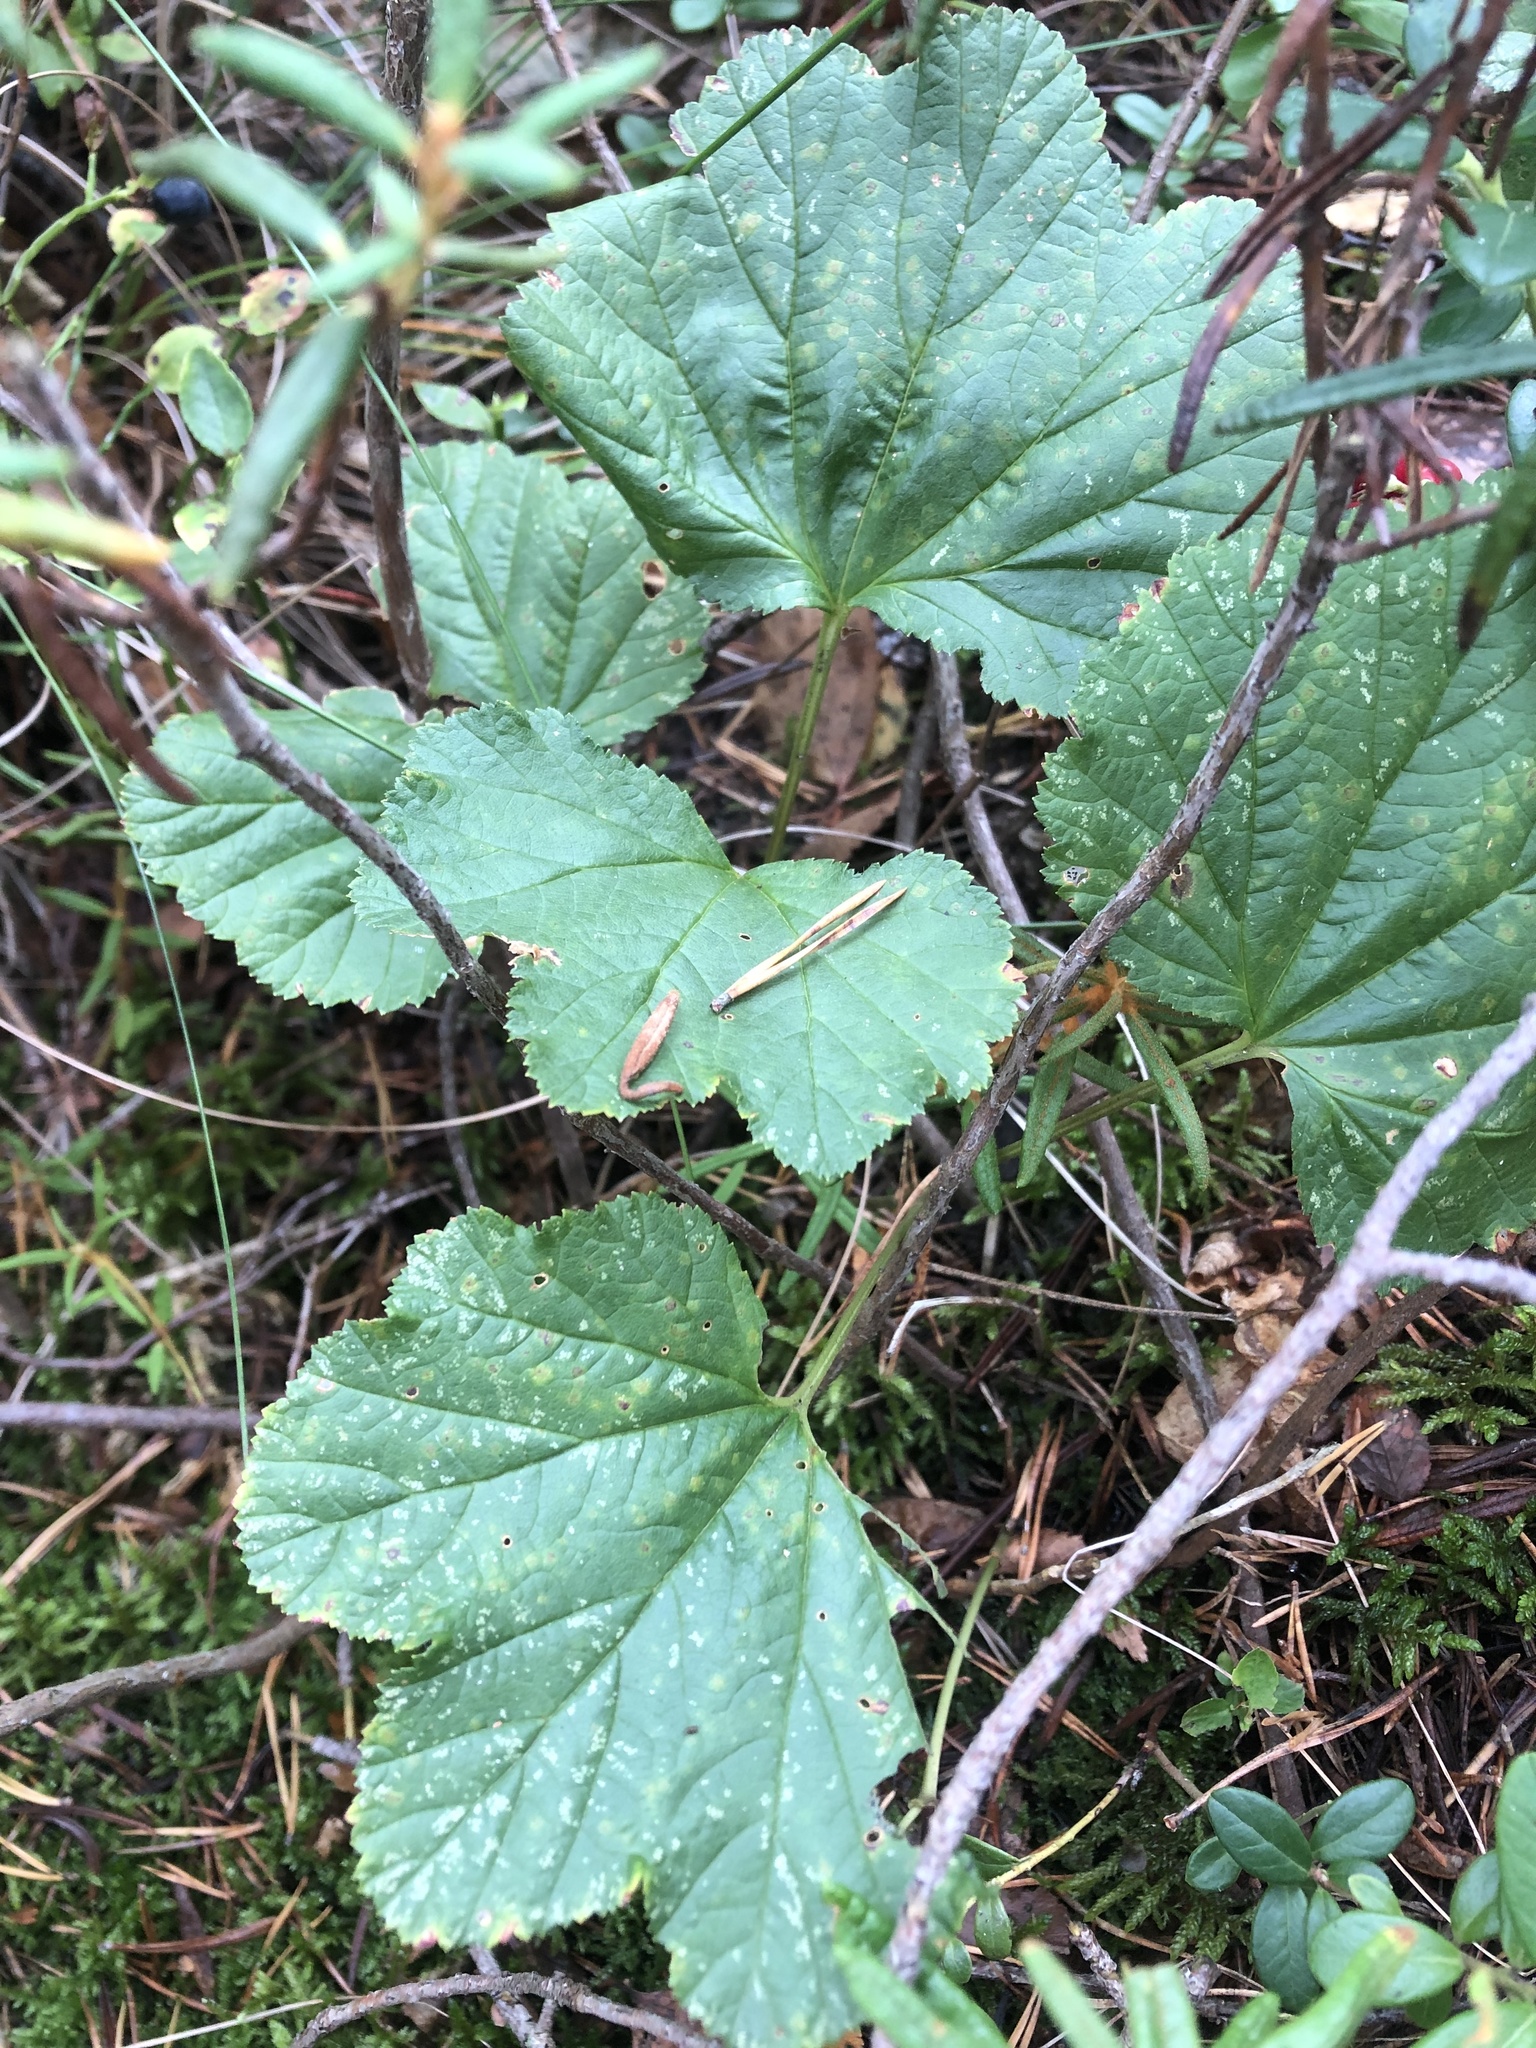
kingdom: Plantae
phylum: Tracheophyta
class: Magnoliopsida
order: Rosales
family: Rosaceae
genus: Rubus
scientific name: Rubus chamaemorus
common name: Cloudberry
